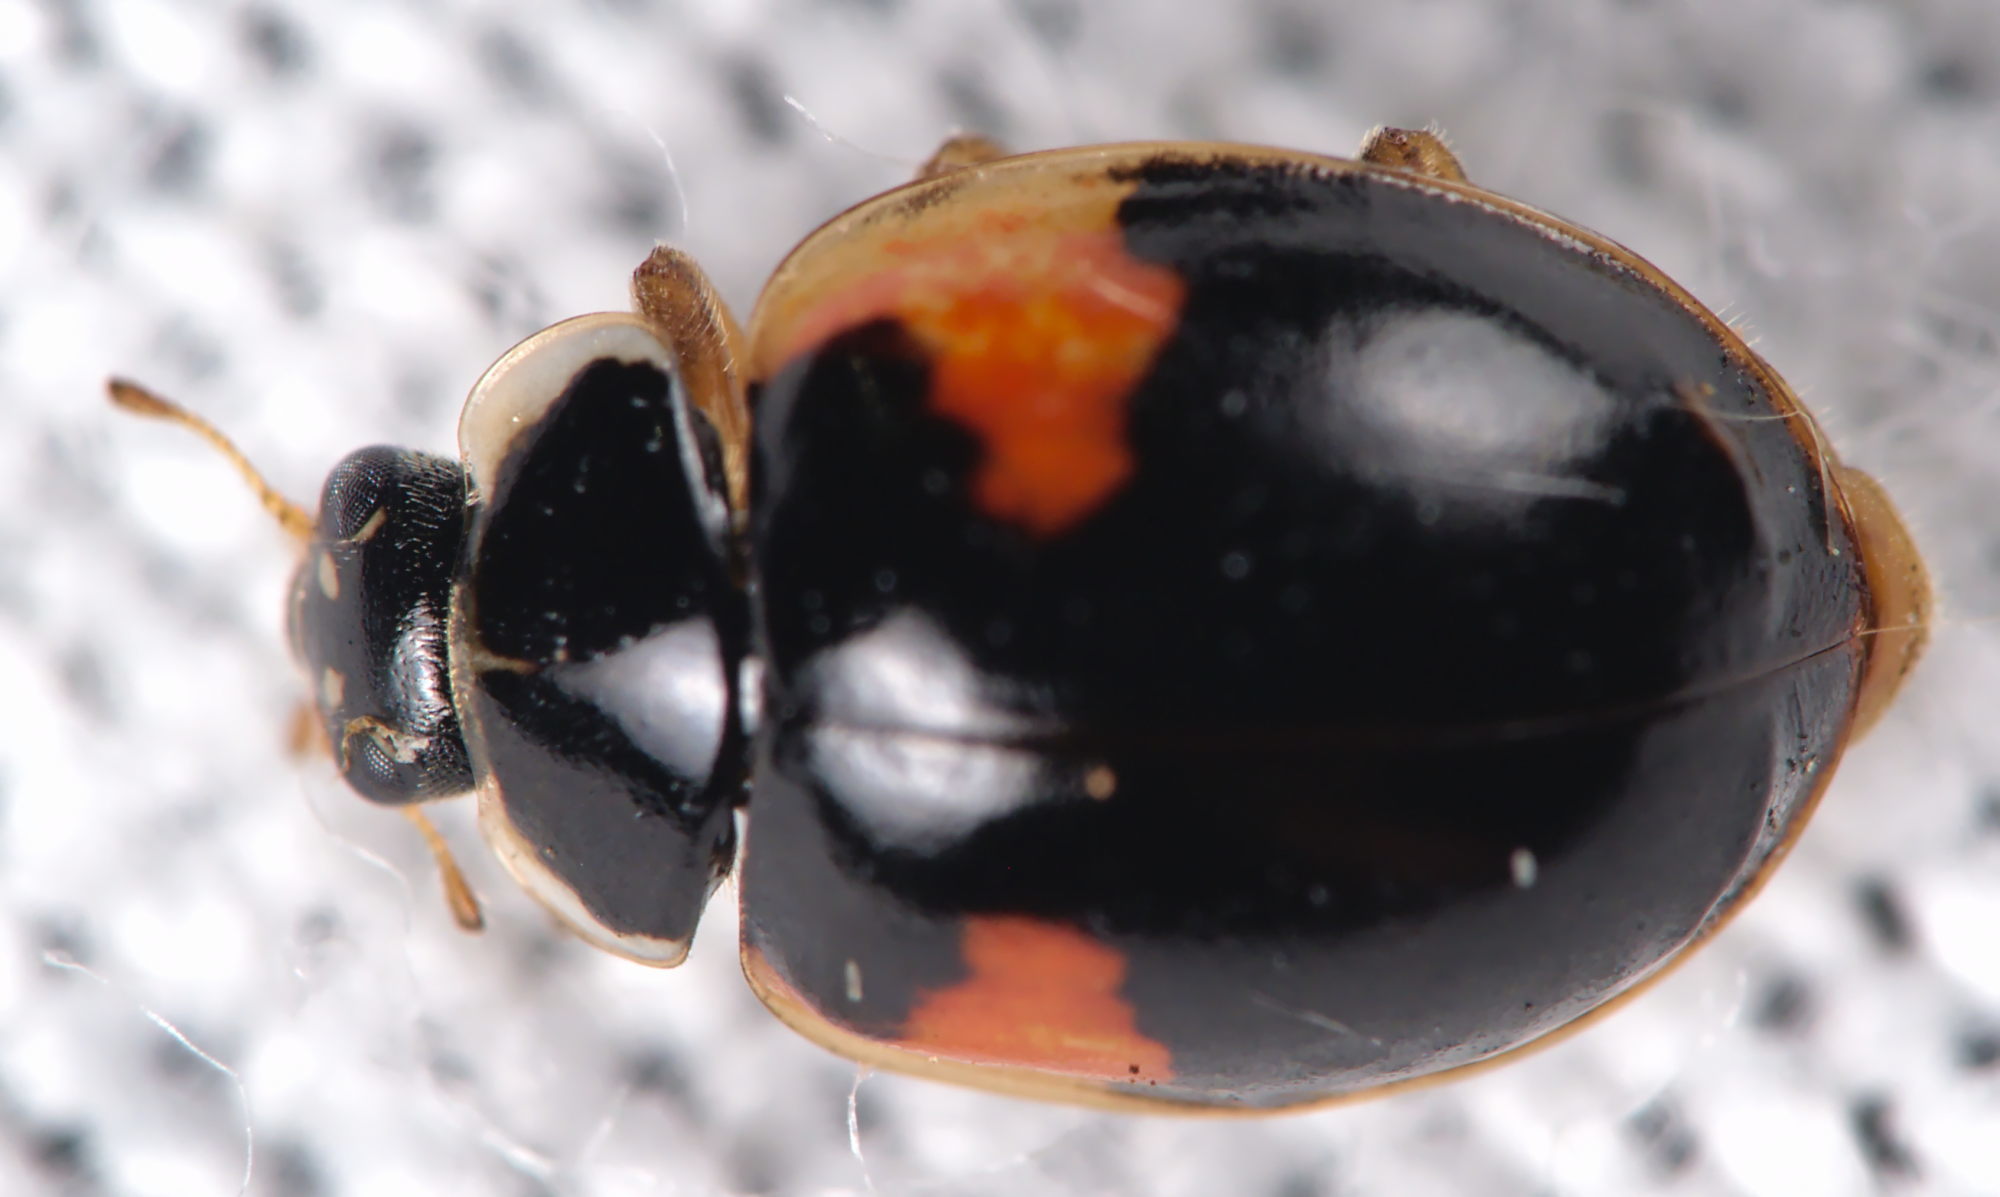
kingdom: Animalia
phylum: Arthropoda
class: Insecta
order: Coleoptera
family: Coccinellidae
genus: Adalia
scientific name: Adalia decempunctata
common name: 10-spot ladybird
